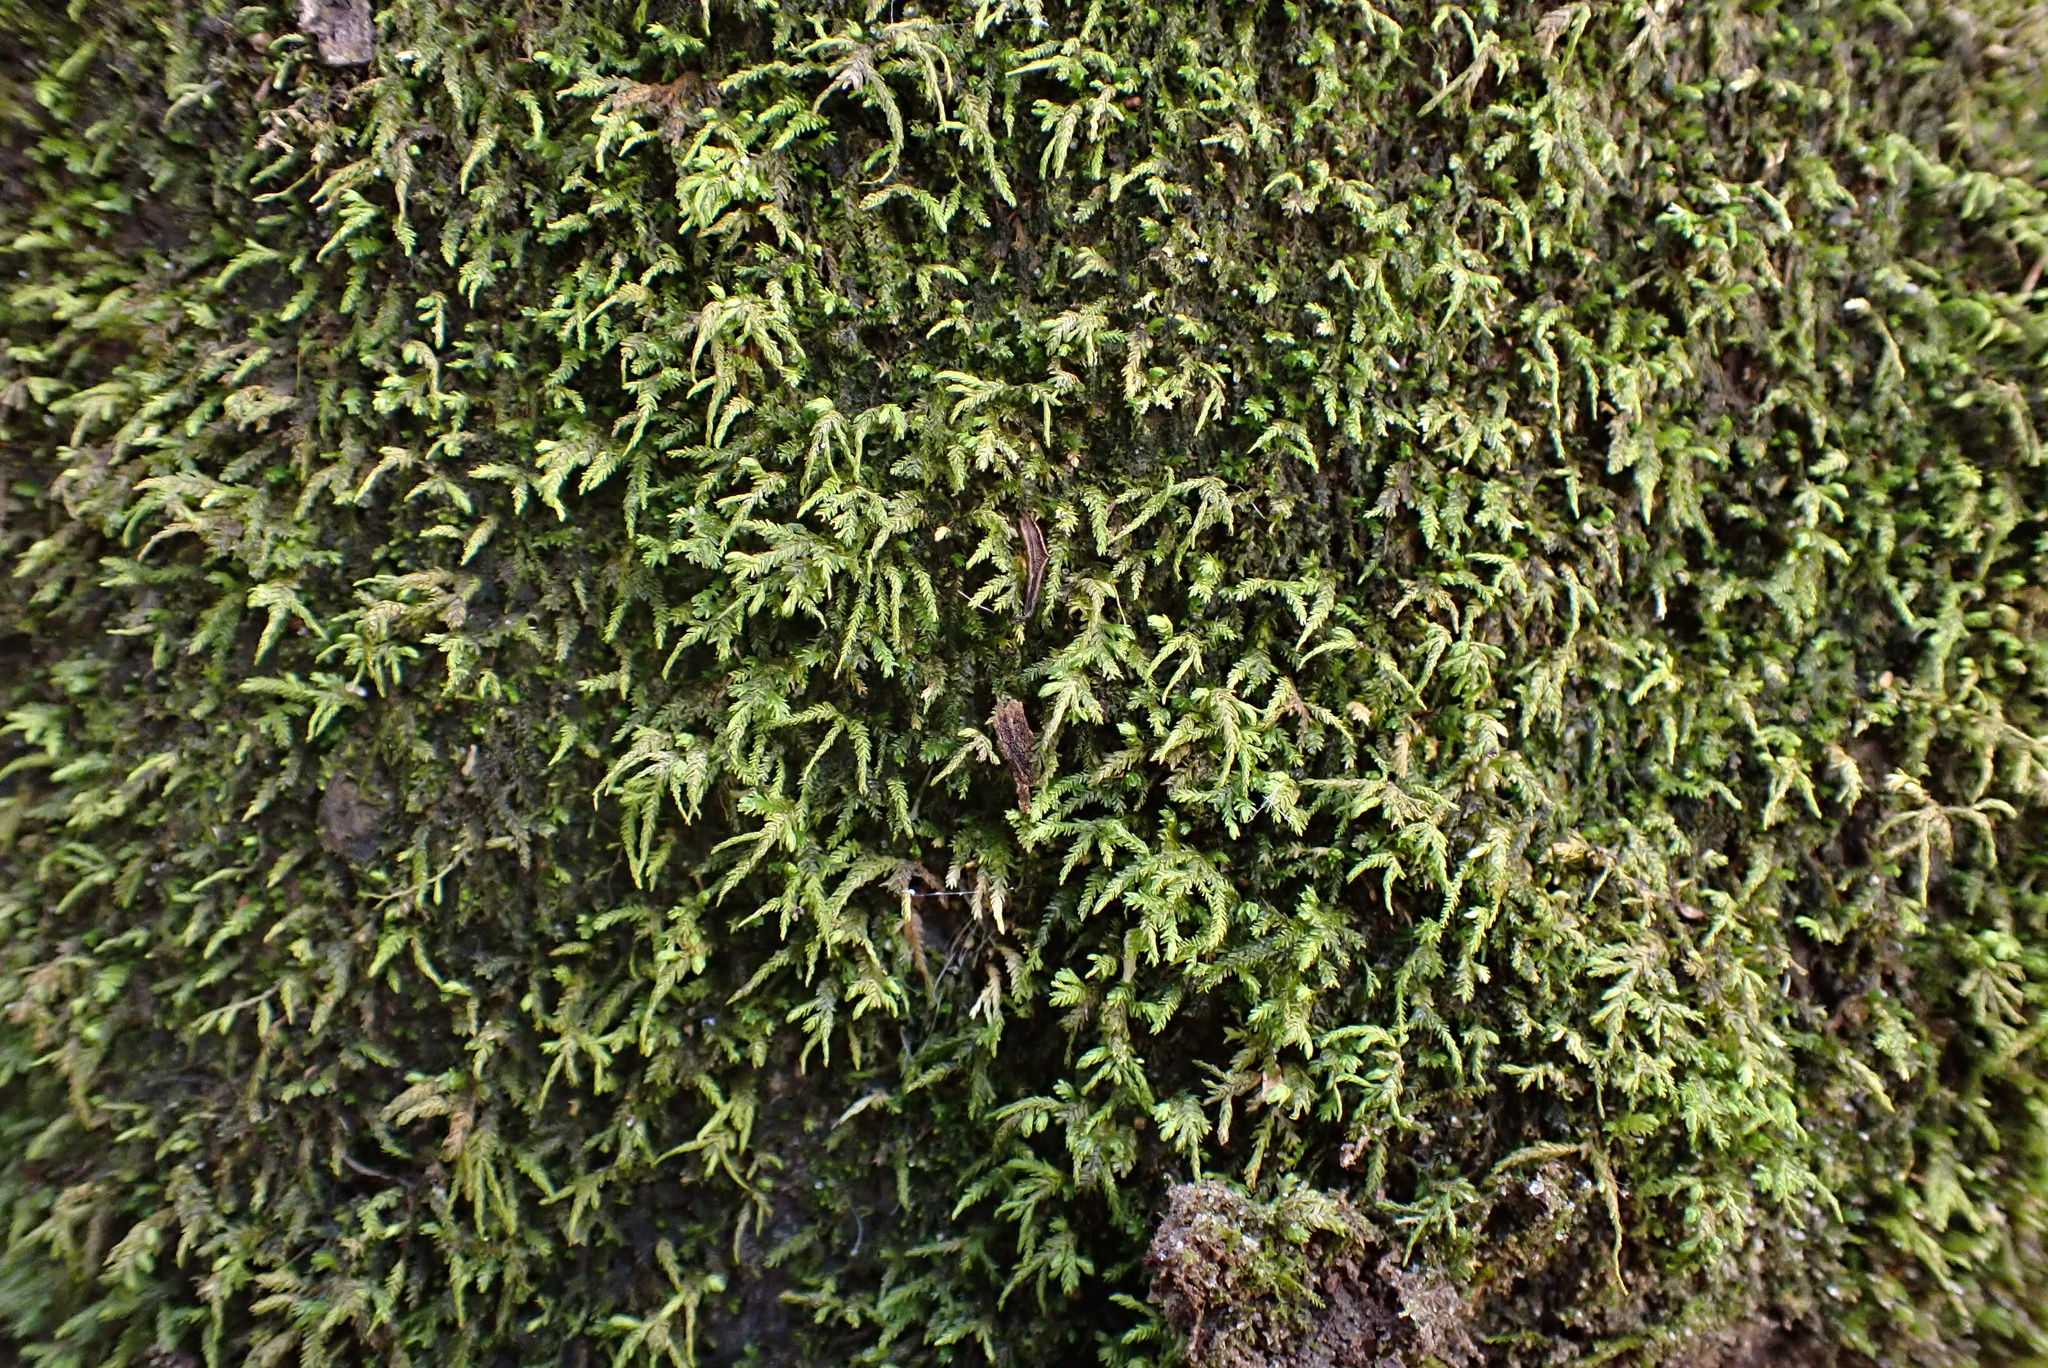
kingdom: Plantae
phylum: Bryophyta
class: Bryopsida
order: Hypnales
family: Neckeraceae
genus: Pseudanomodon
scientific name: Pseudanomodon attenuatus
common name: Tree-skirt moss
